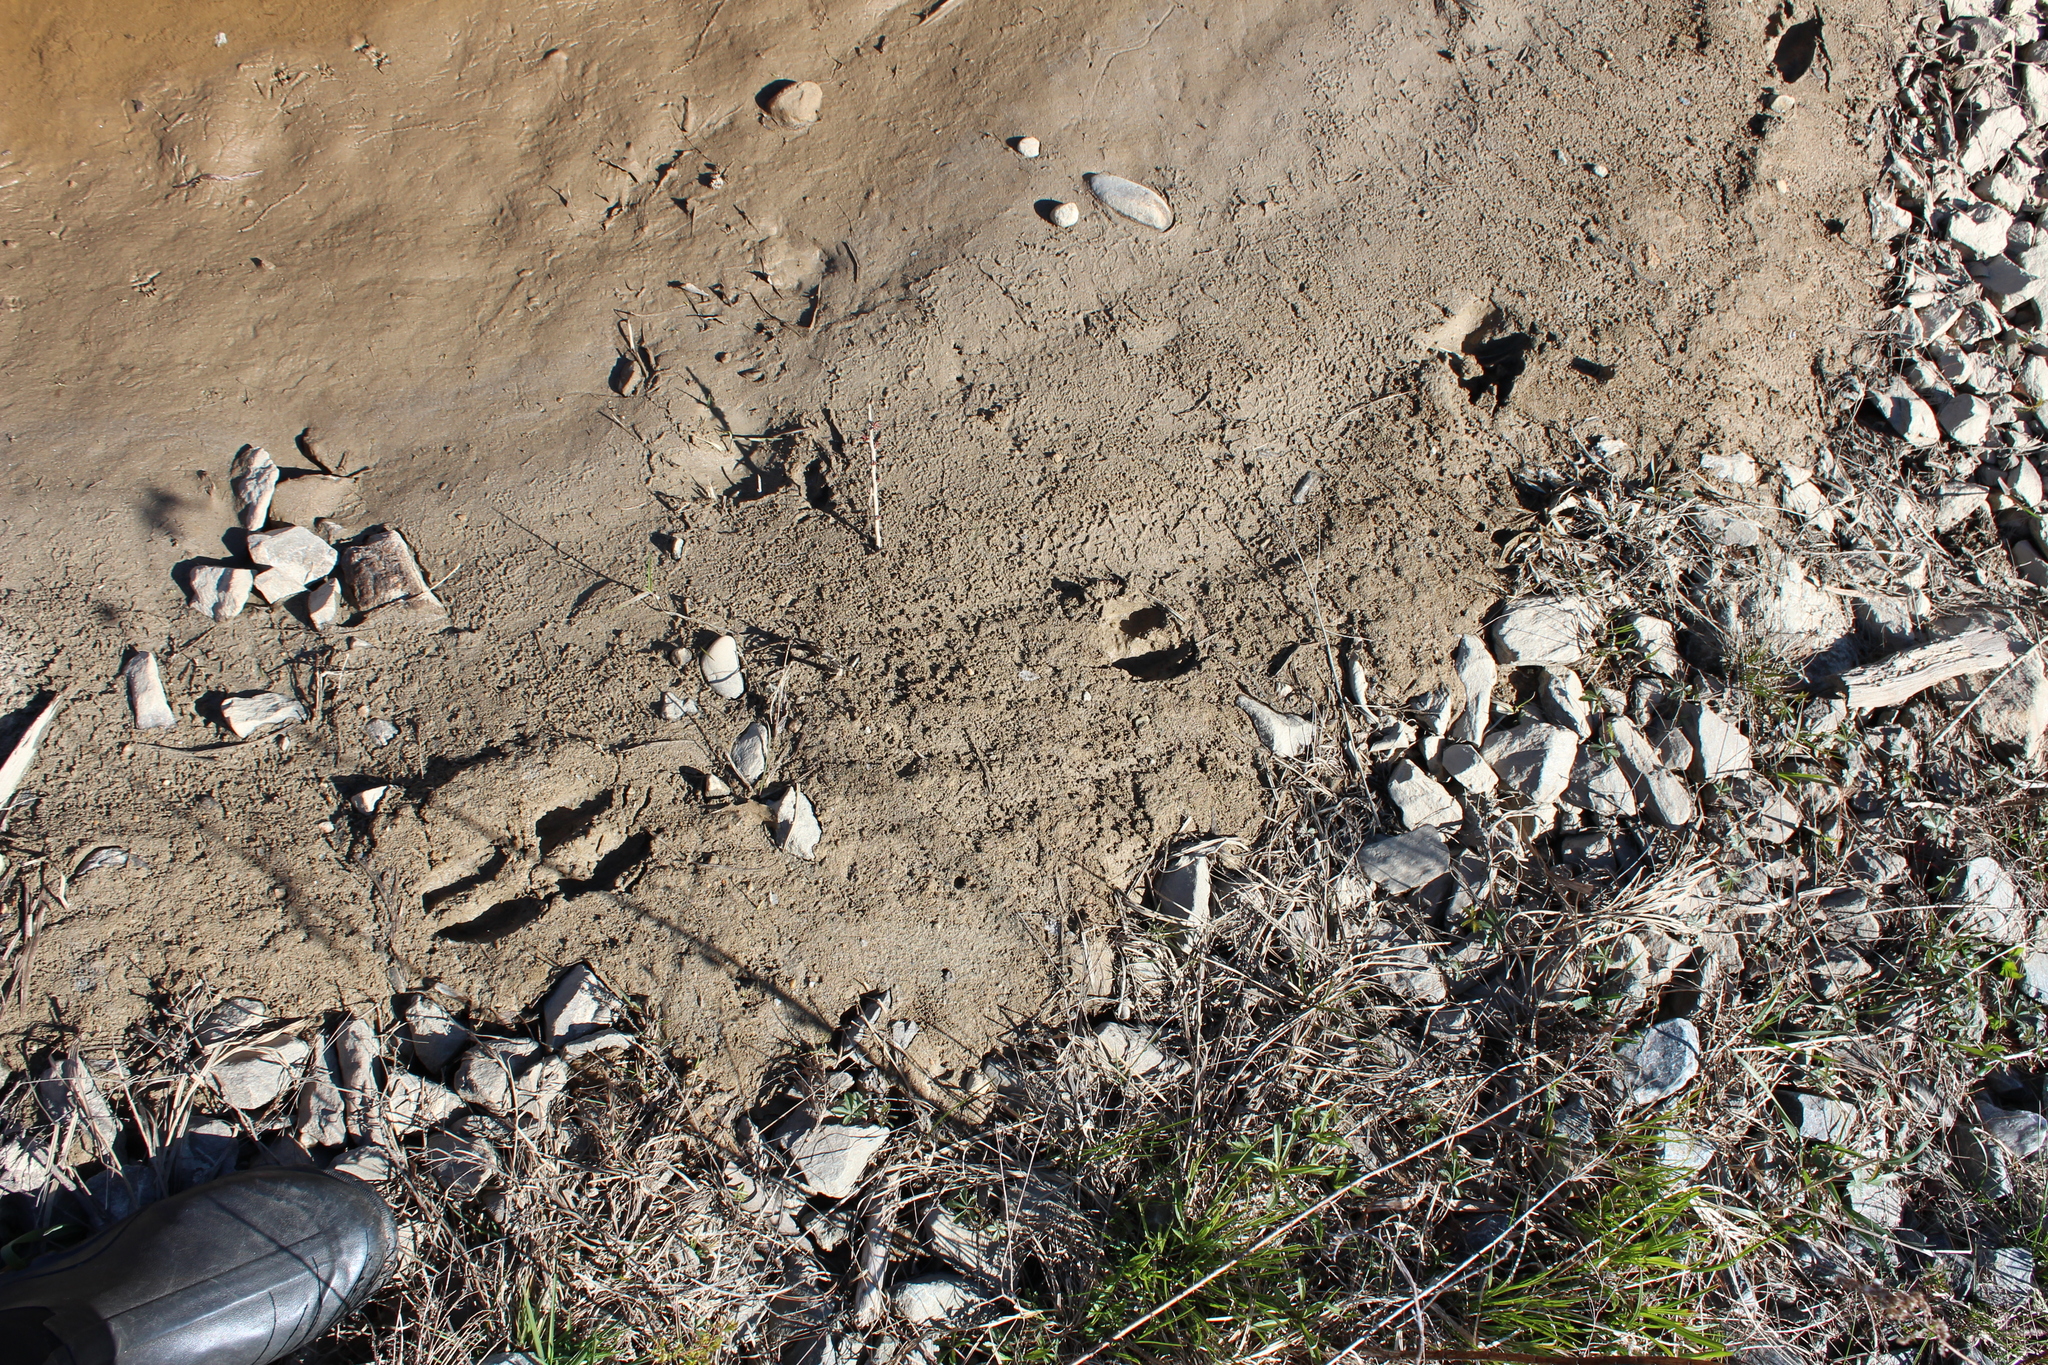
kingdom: Animalia
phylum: Chordata
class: Mammalia
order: Artiodactyla
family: Cervidae
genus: Odocoileus
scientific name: Odocoileus virginianus
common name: White-tailed deer
